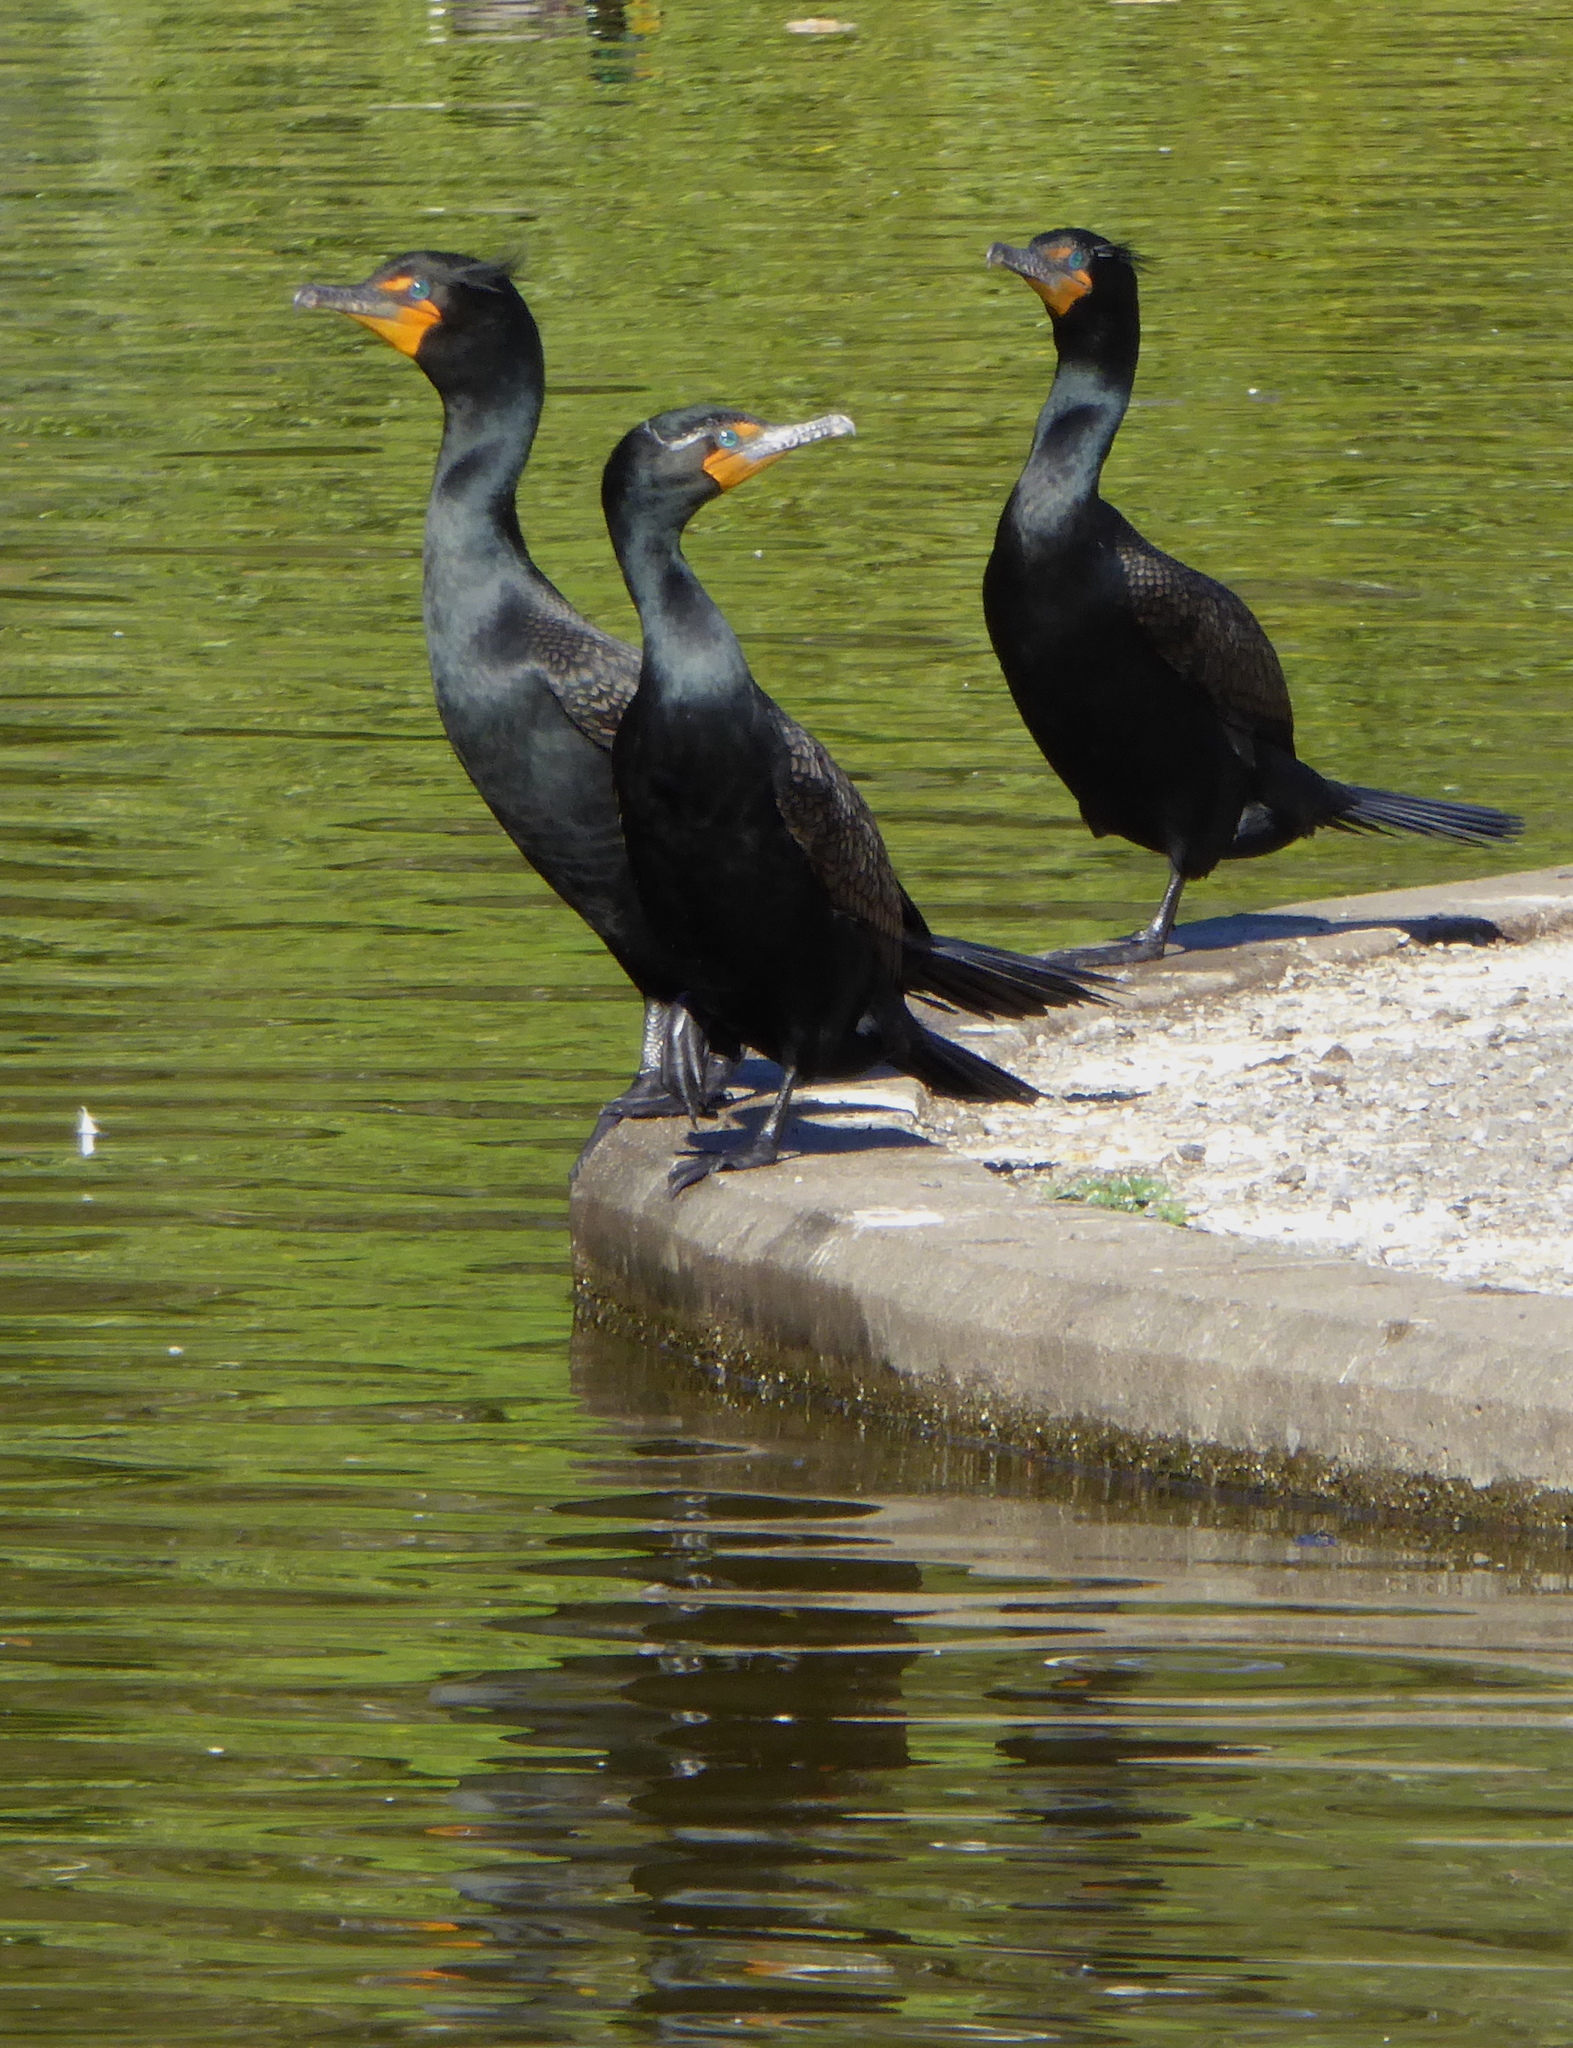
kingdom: Animalia
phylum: Chordata
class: Aves
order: Suliformes
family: Phalacrocoracidae
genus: Phalacrocorax
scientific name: Phalacrocorax auritus
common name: Double-crested cormorant
